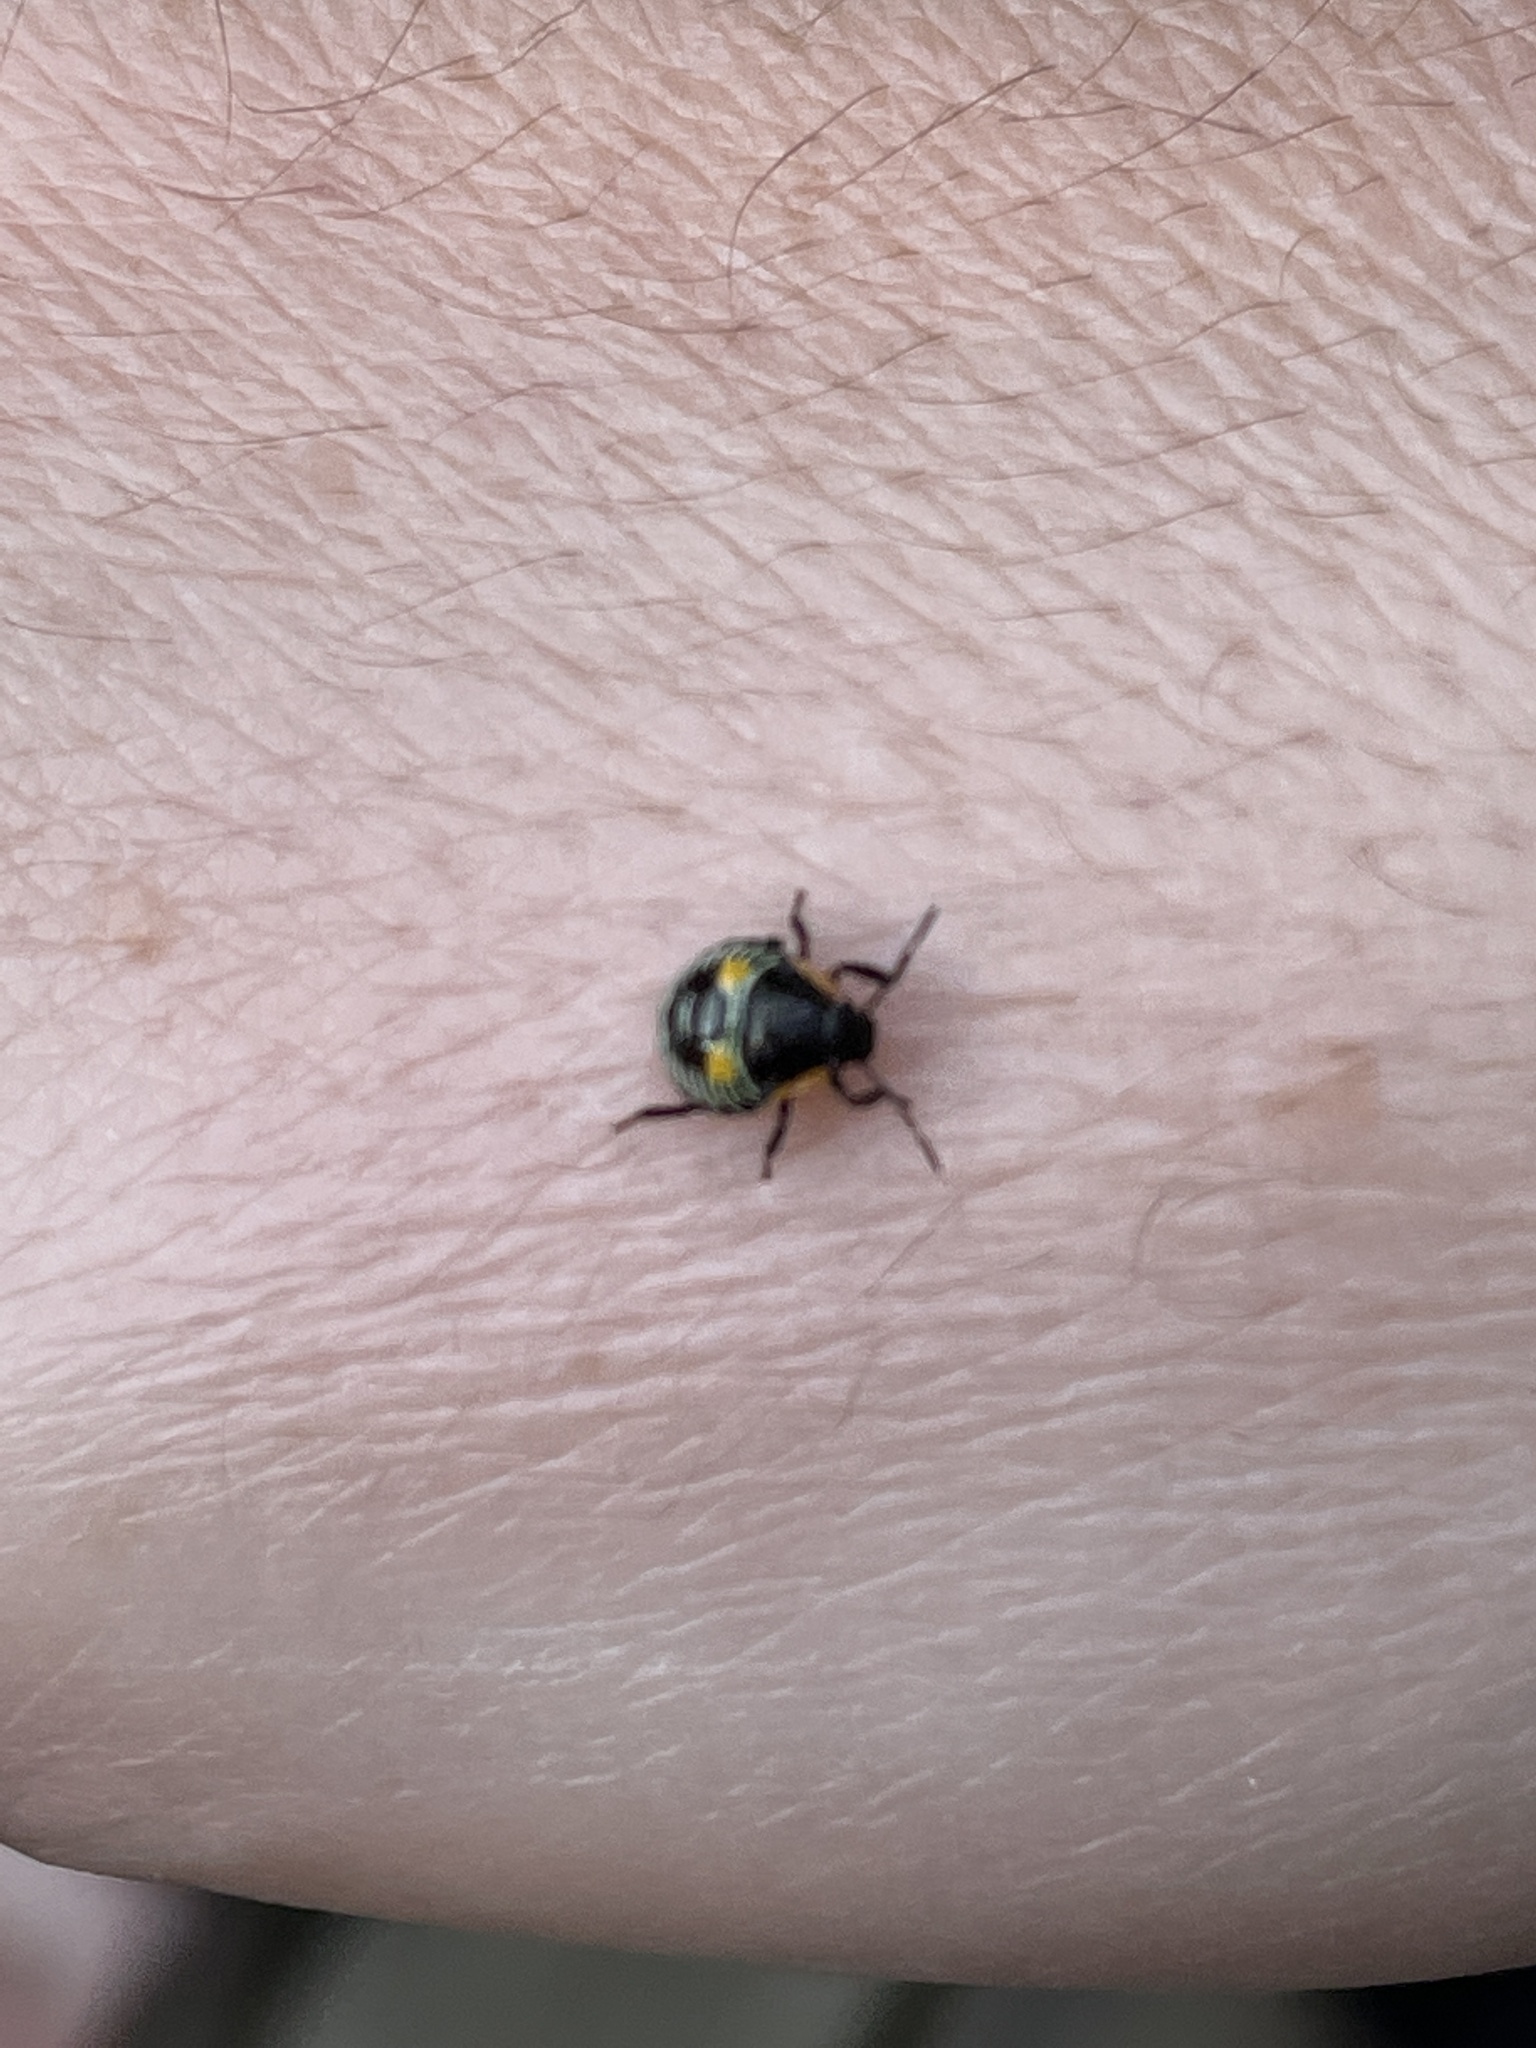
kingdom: Animalia
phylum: Arthropoda
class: Insecta
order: Hemiptera
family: Pentatomidae
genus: Chinavia
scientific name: Chinavia hilaris
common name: Green stink bug
